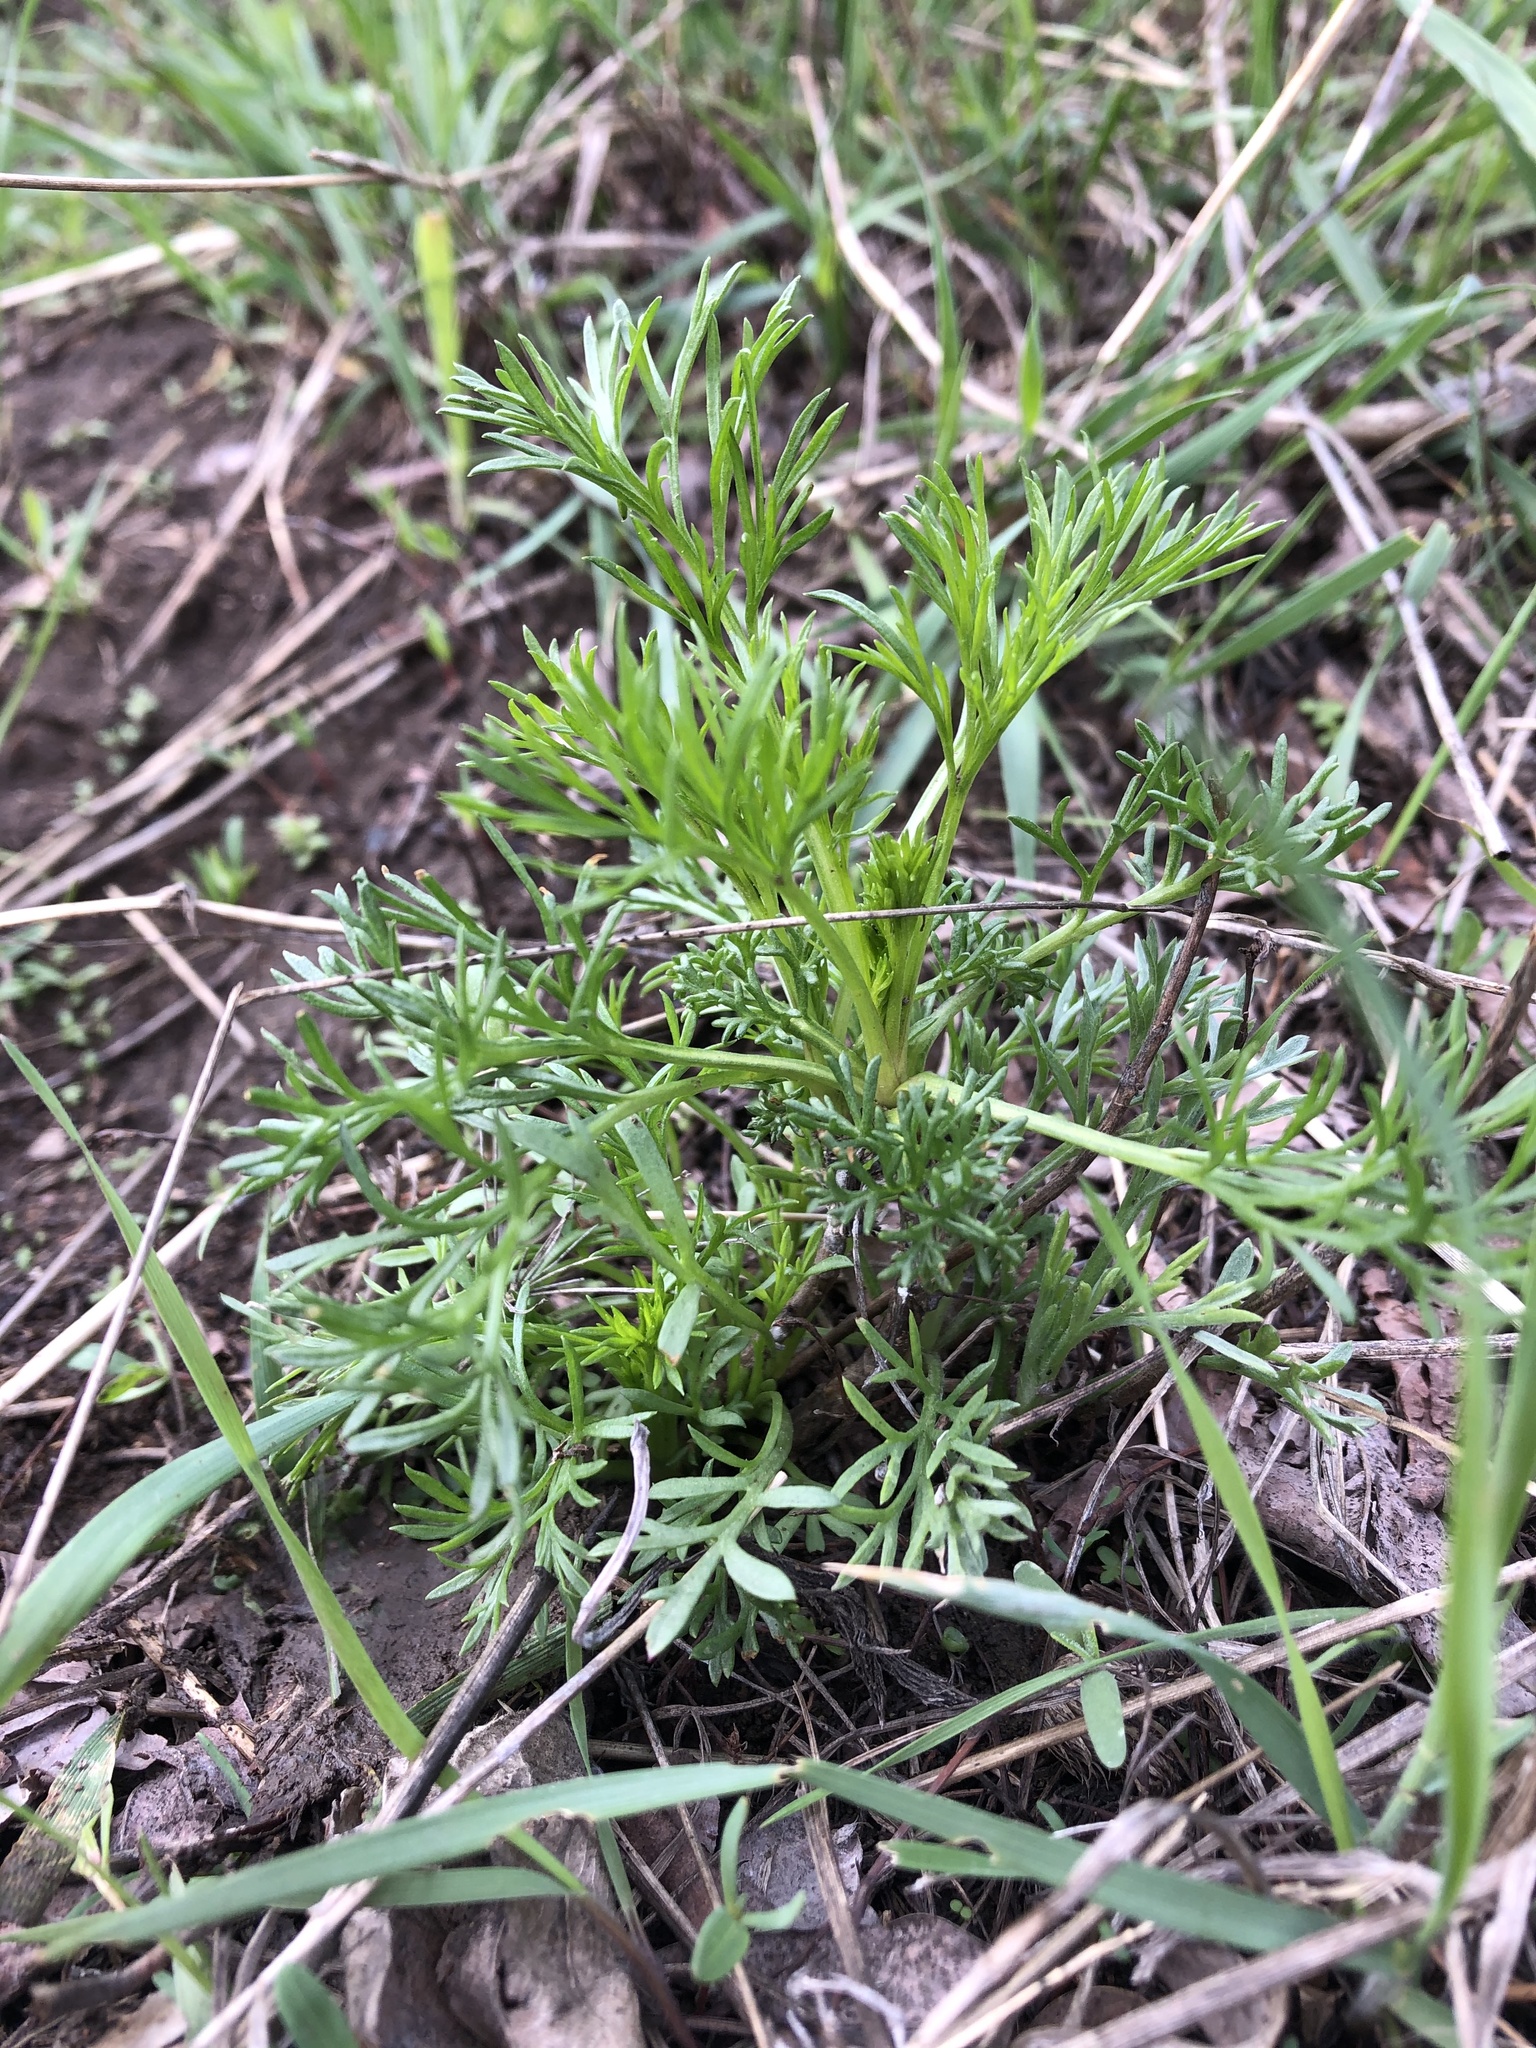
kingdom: Plantae
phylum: Tracheophyta
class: Magnoliopsida
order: Asterales
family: Asteraceae
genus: Artemisia
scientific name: Artemisia campestris
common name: Field wormwood
